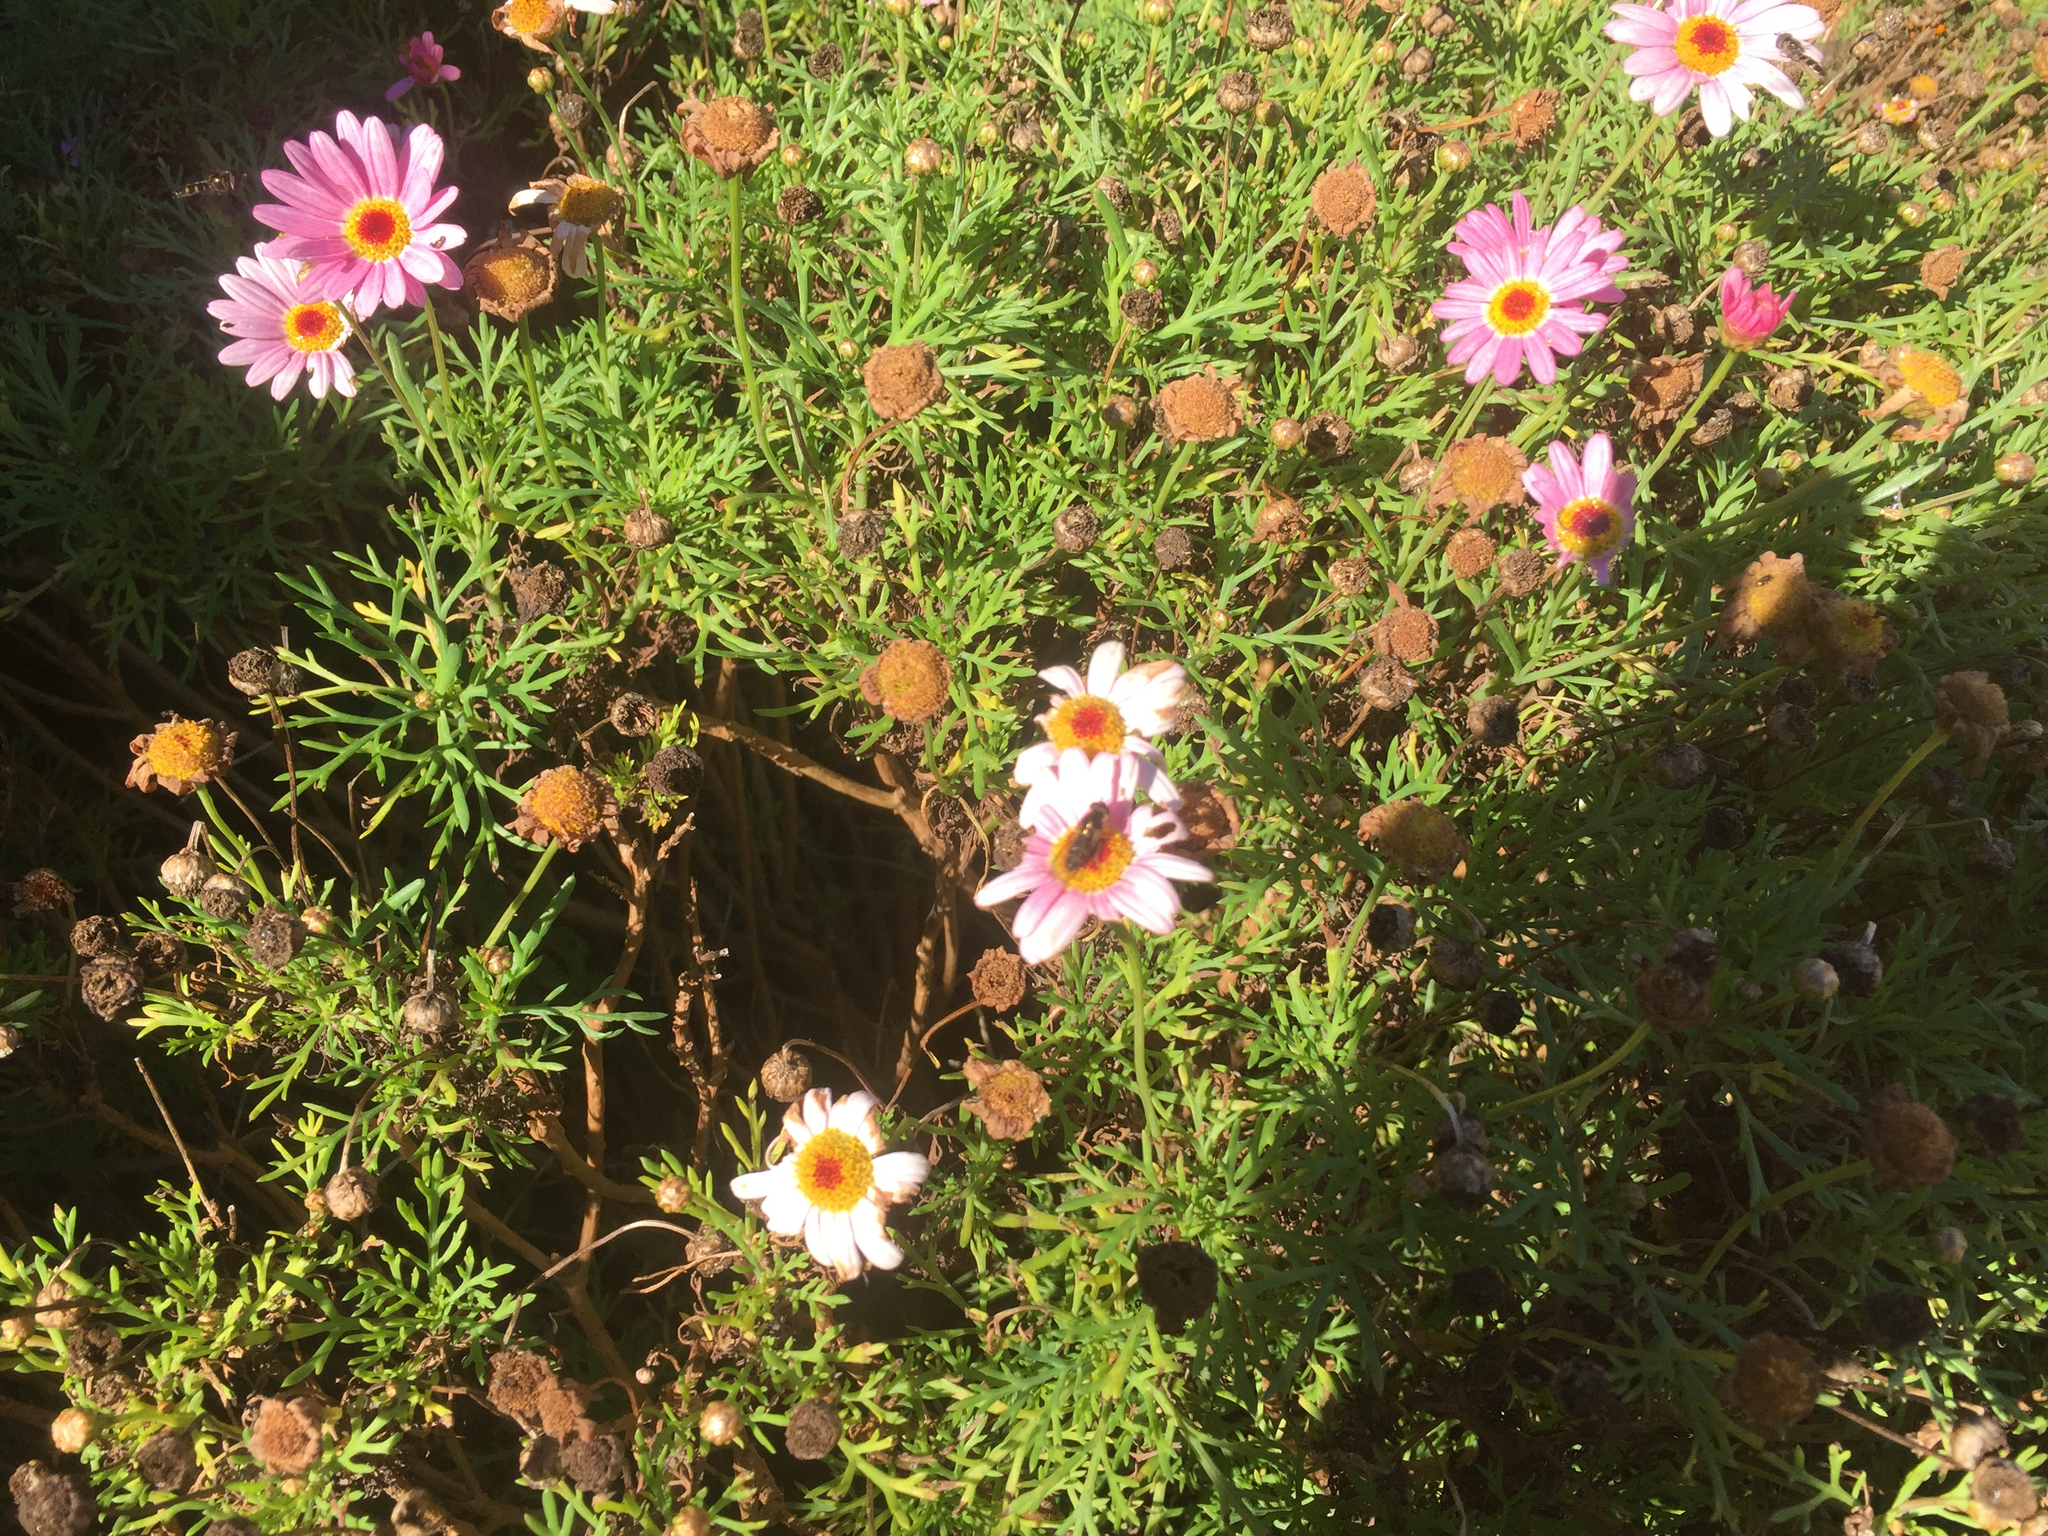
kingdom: Animalia
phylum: Arthropoda
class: Insecta
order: Diptera
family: Syrphidae
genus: Melangyna
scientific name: Melangyna novaezelandiae
